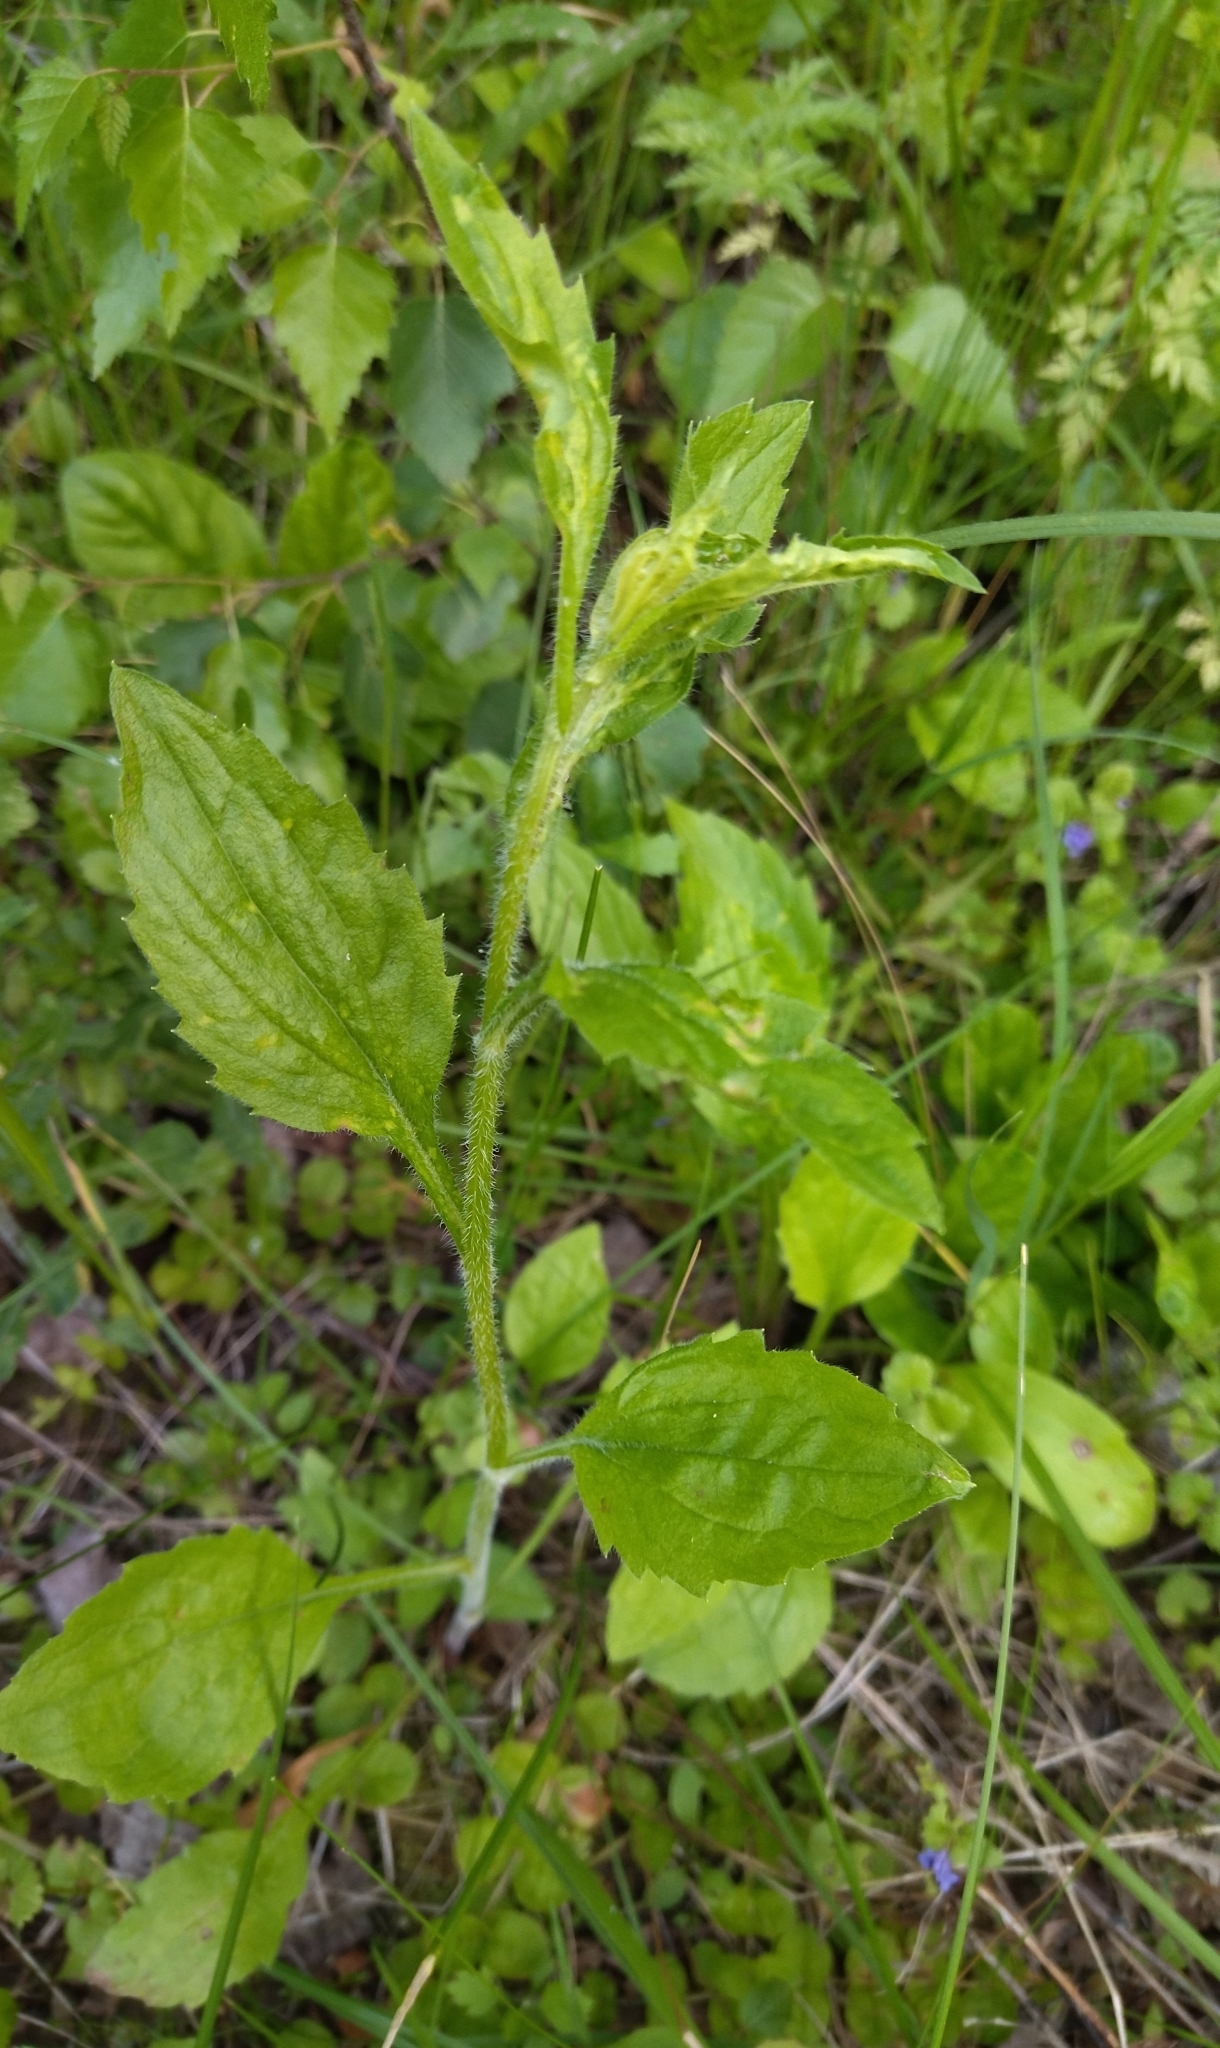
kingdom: Plantae
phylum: Tracheophyta
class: Magnoliopsida
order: Asterales
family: Asteraceae
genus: Erigeron
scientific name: Erigeron annuus
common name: Tall fleabane
